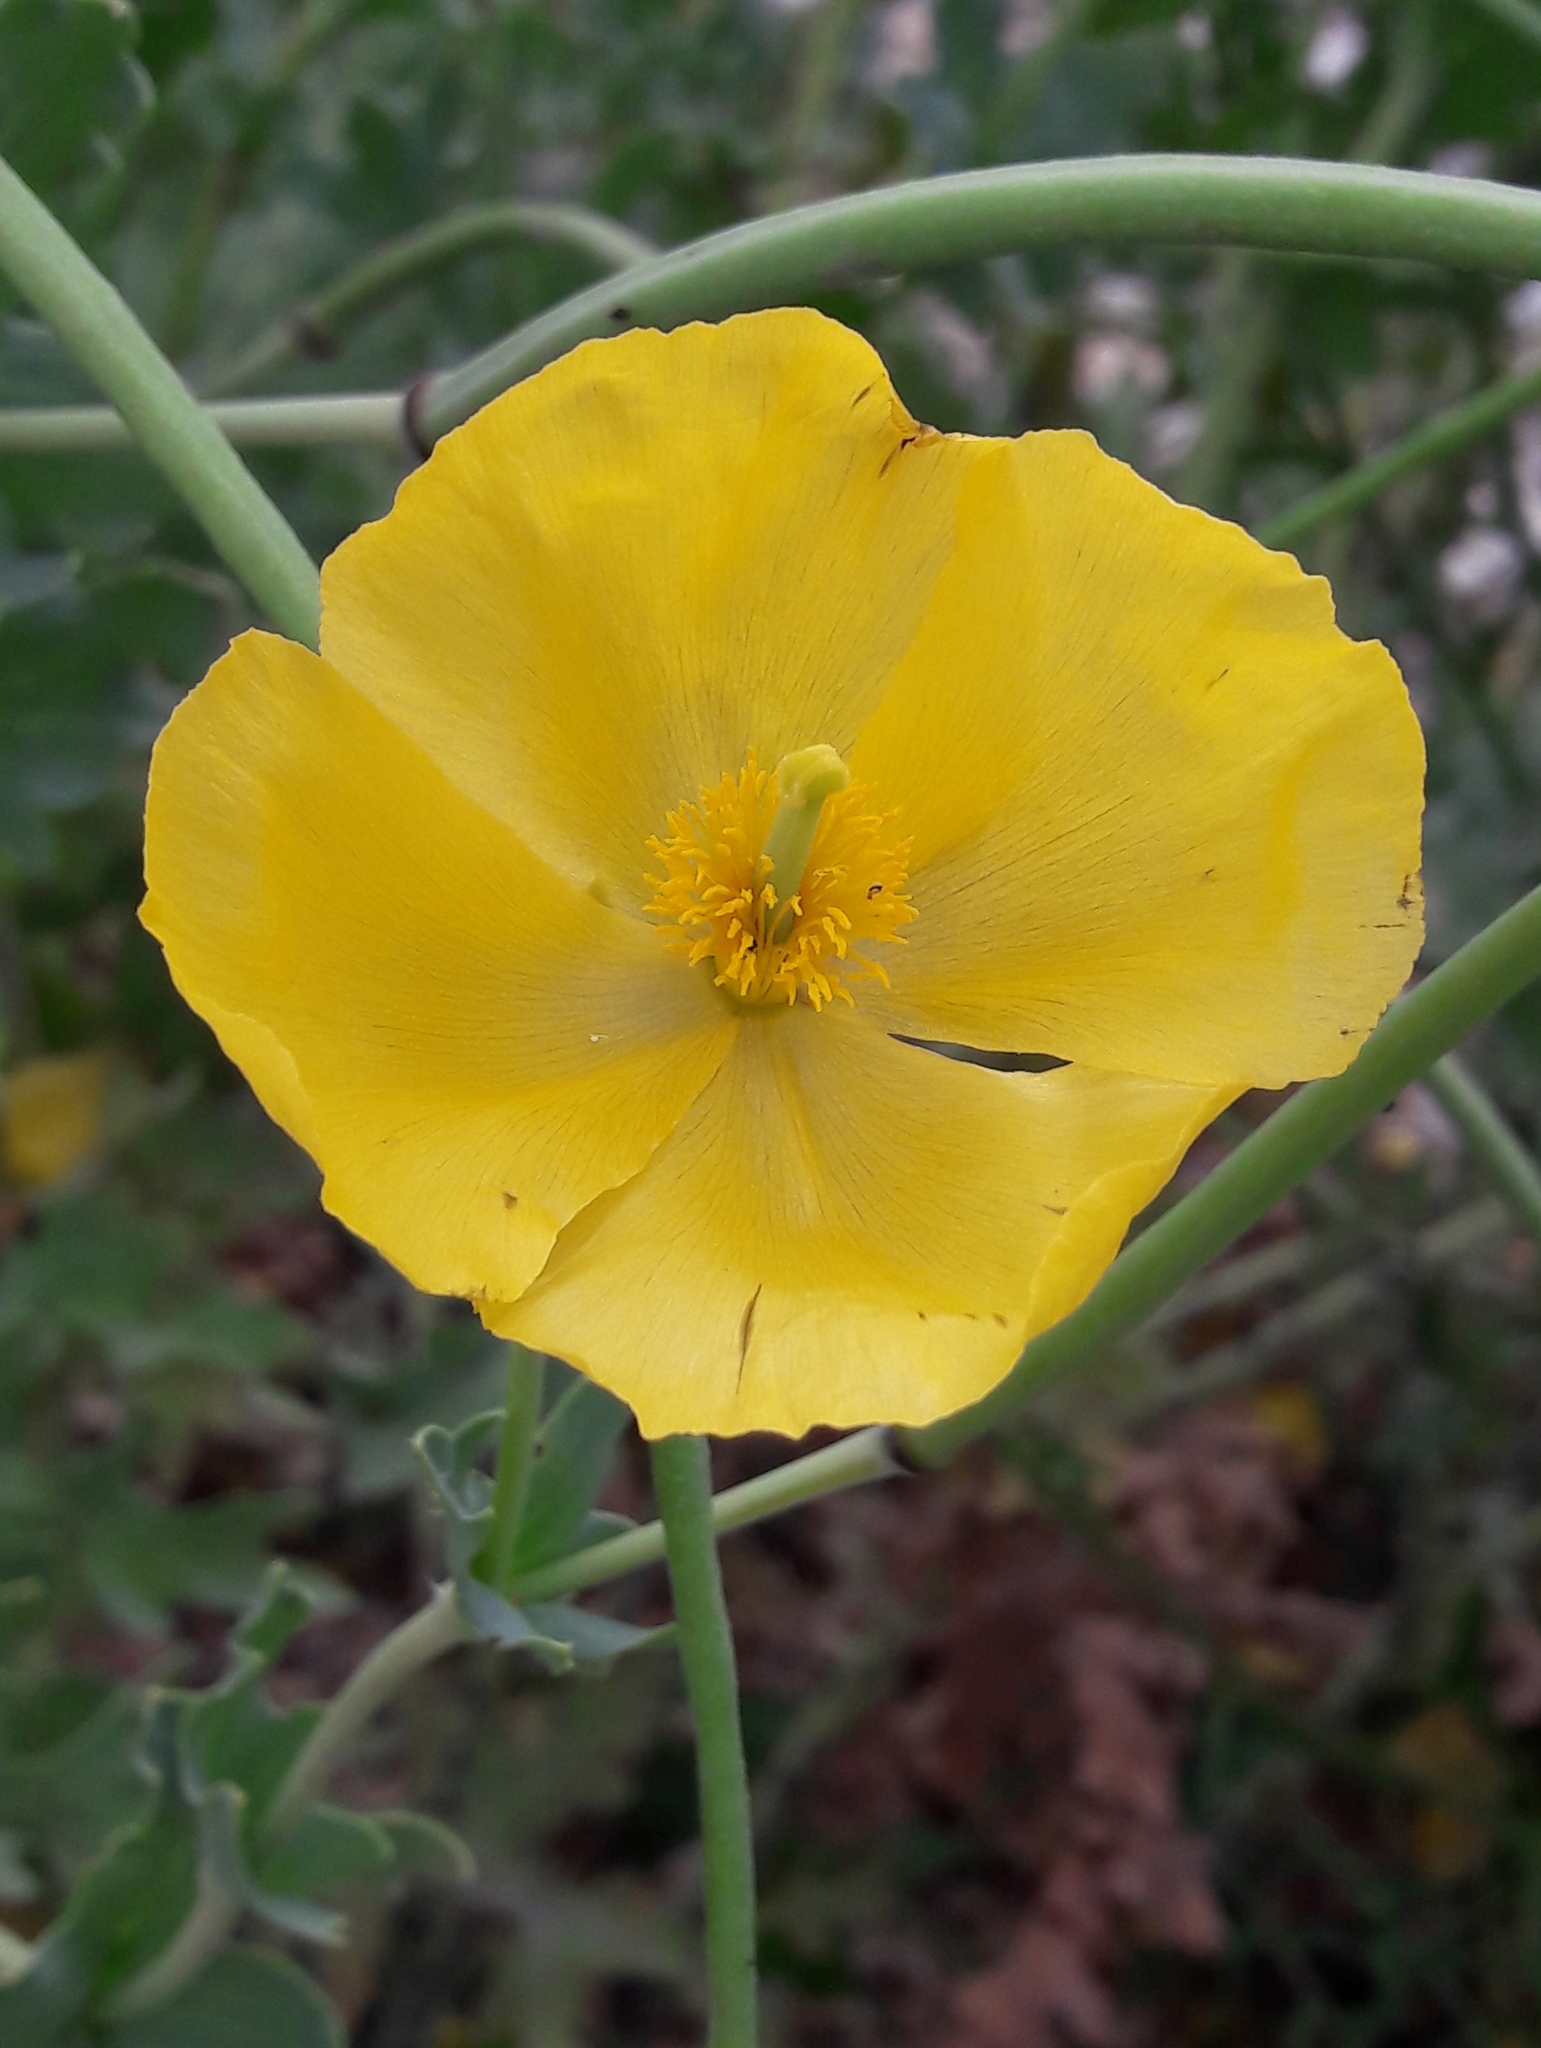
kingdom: Plantae
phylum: Tracheophyta
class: Magnoliopsida
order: Ranunculales
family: Papaveraceae
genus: Glaucium
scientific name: Glaucium flavum
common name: Yellow horned-poppy
